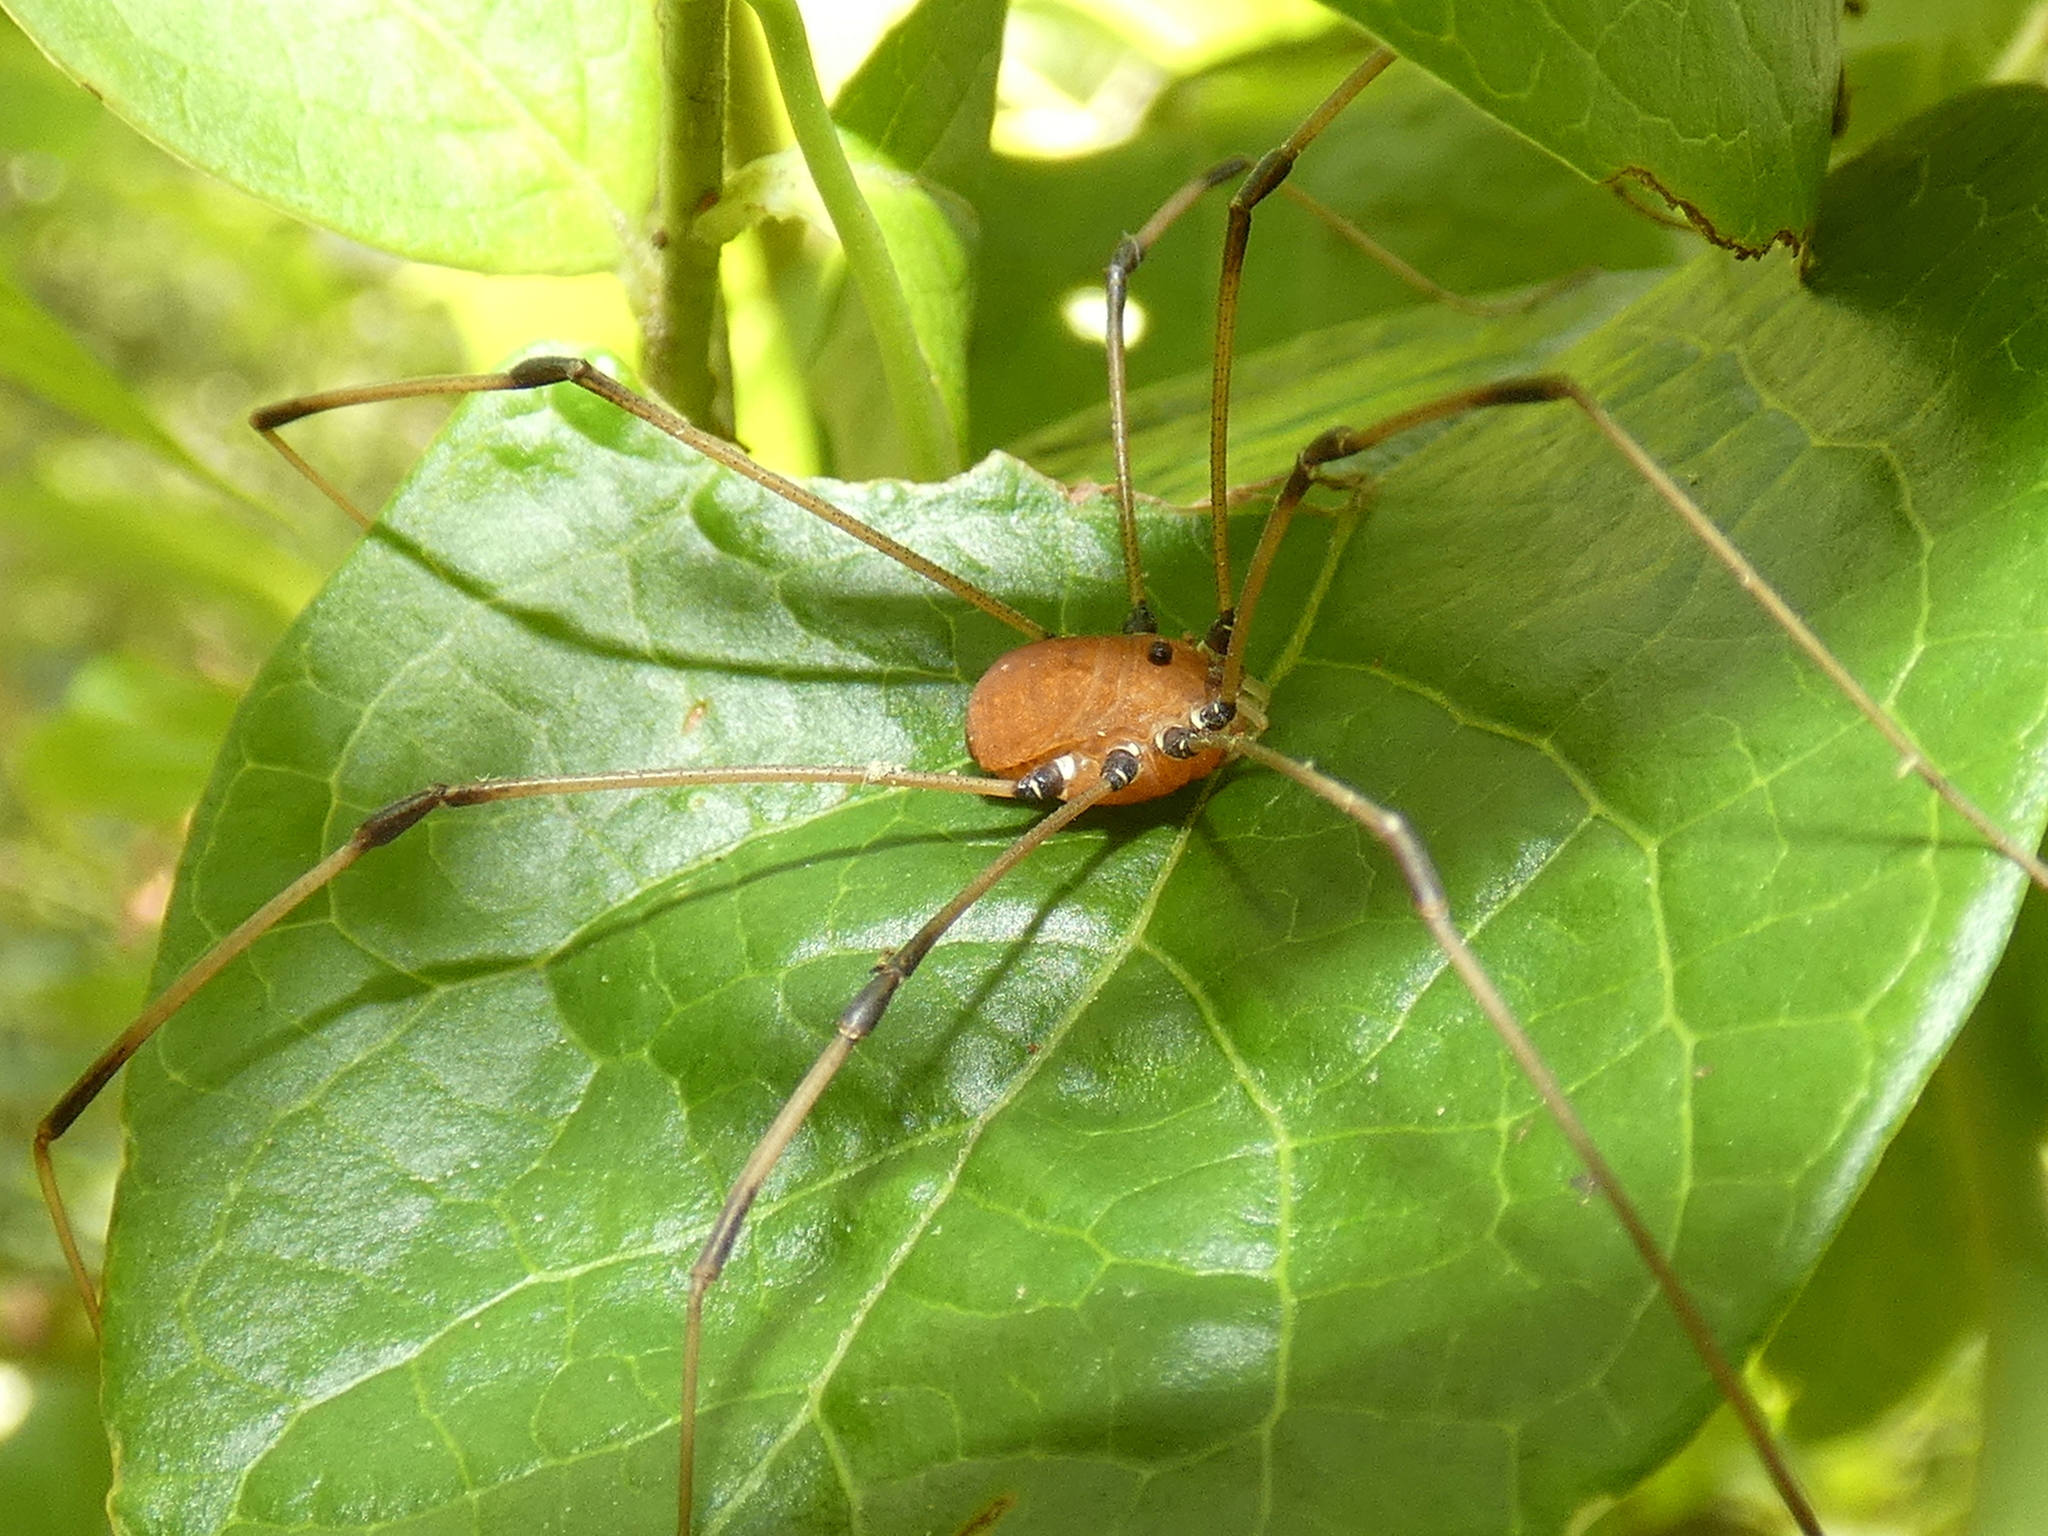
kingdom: Animalia
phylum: Arthropoda
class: Arachnida
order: Opiliones
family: Sclerosomatidae
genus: Leiobunum
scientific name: Leiobunum ventricosum
